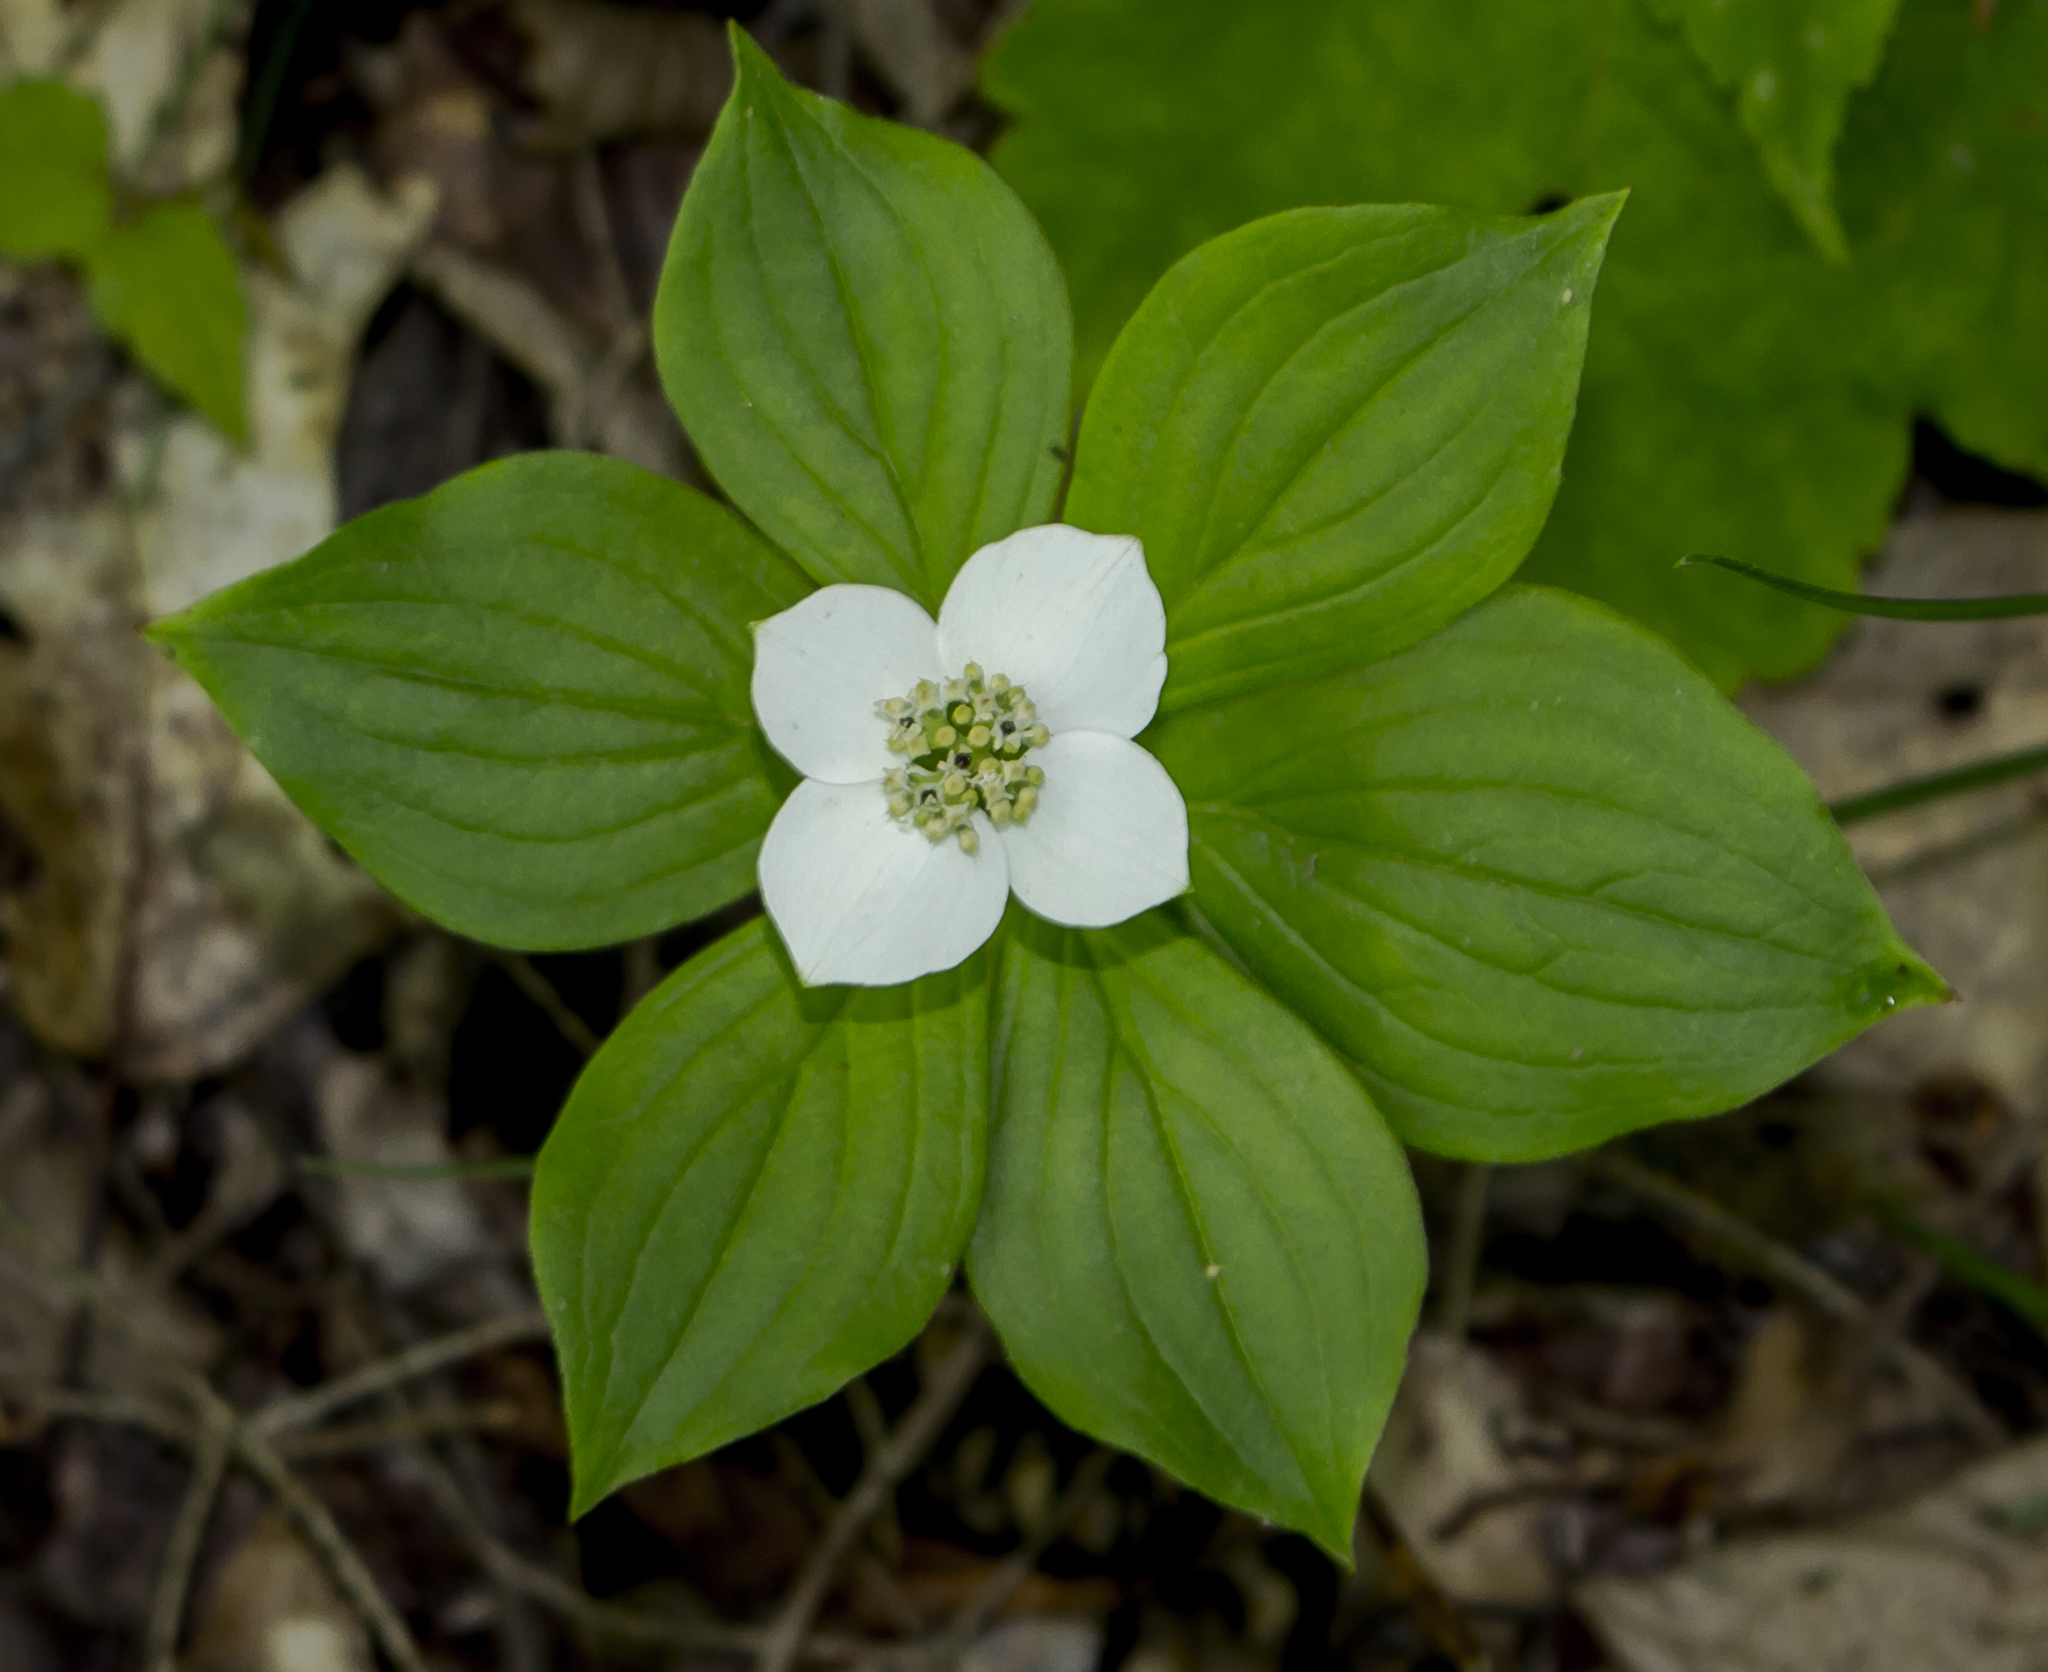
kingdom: Plantae
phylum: Tracheophyta
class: Magnoliopsida
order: Cornales
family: Cornaceae
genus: Cornus
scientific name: Cornus canadensis
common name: Creeping dogwood
